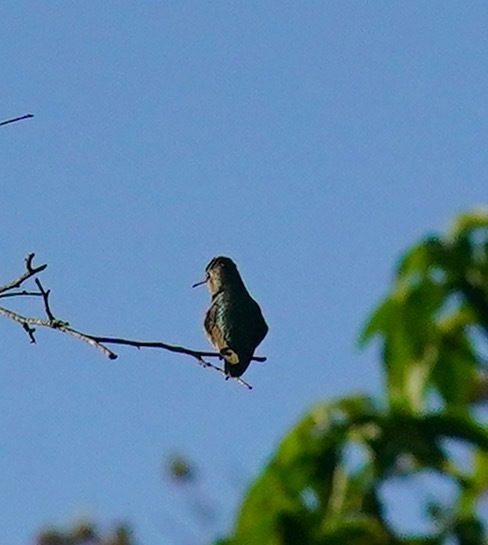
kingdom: Animalia
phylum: Chordata
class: Aves
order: Apodiformes
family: Trochilidae
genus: Calypte
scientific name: Calypte anna
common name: Anna's hummingbird
